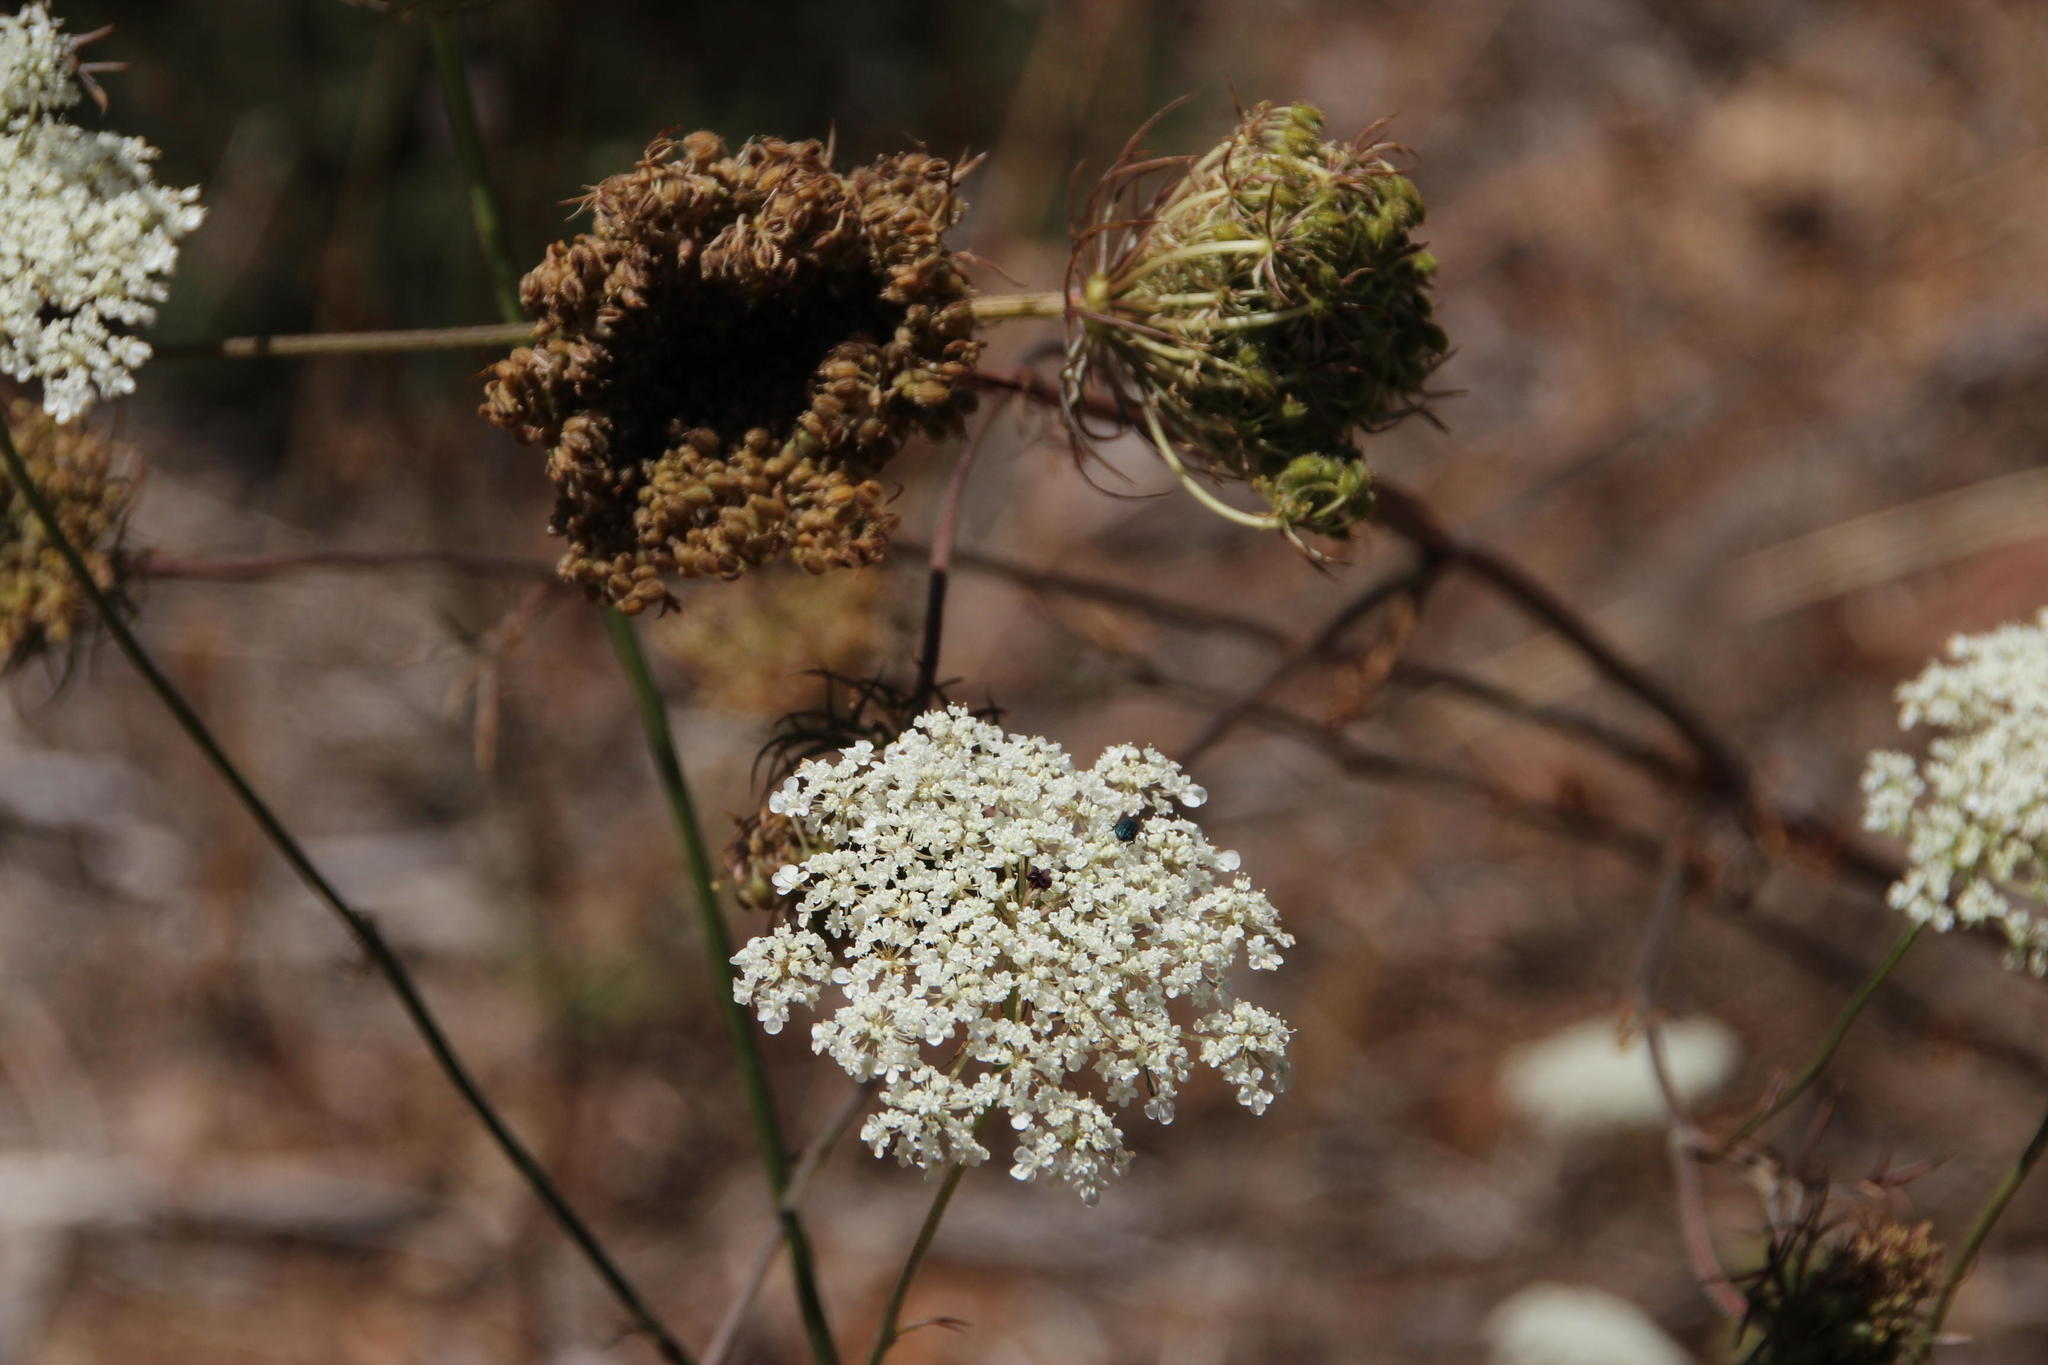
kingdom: Plantae
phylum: Tracheophyta
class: Magnoliopsida
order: Apiales
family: Apiaceae
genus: Daucus
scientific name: Daucus carota
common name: Wild carrot
